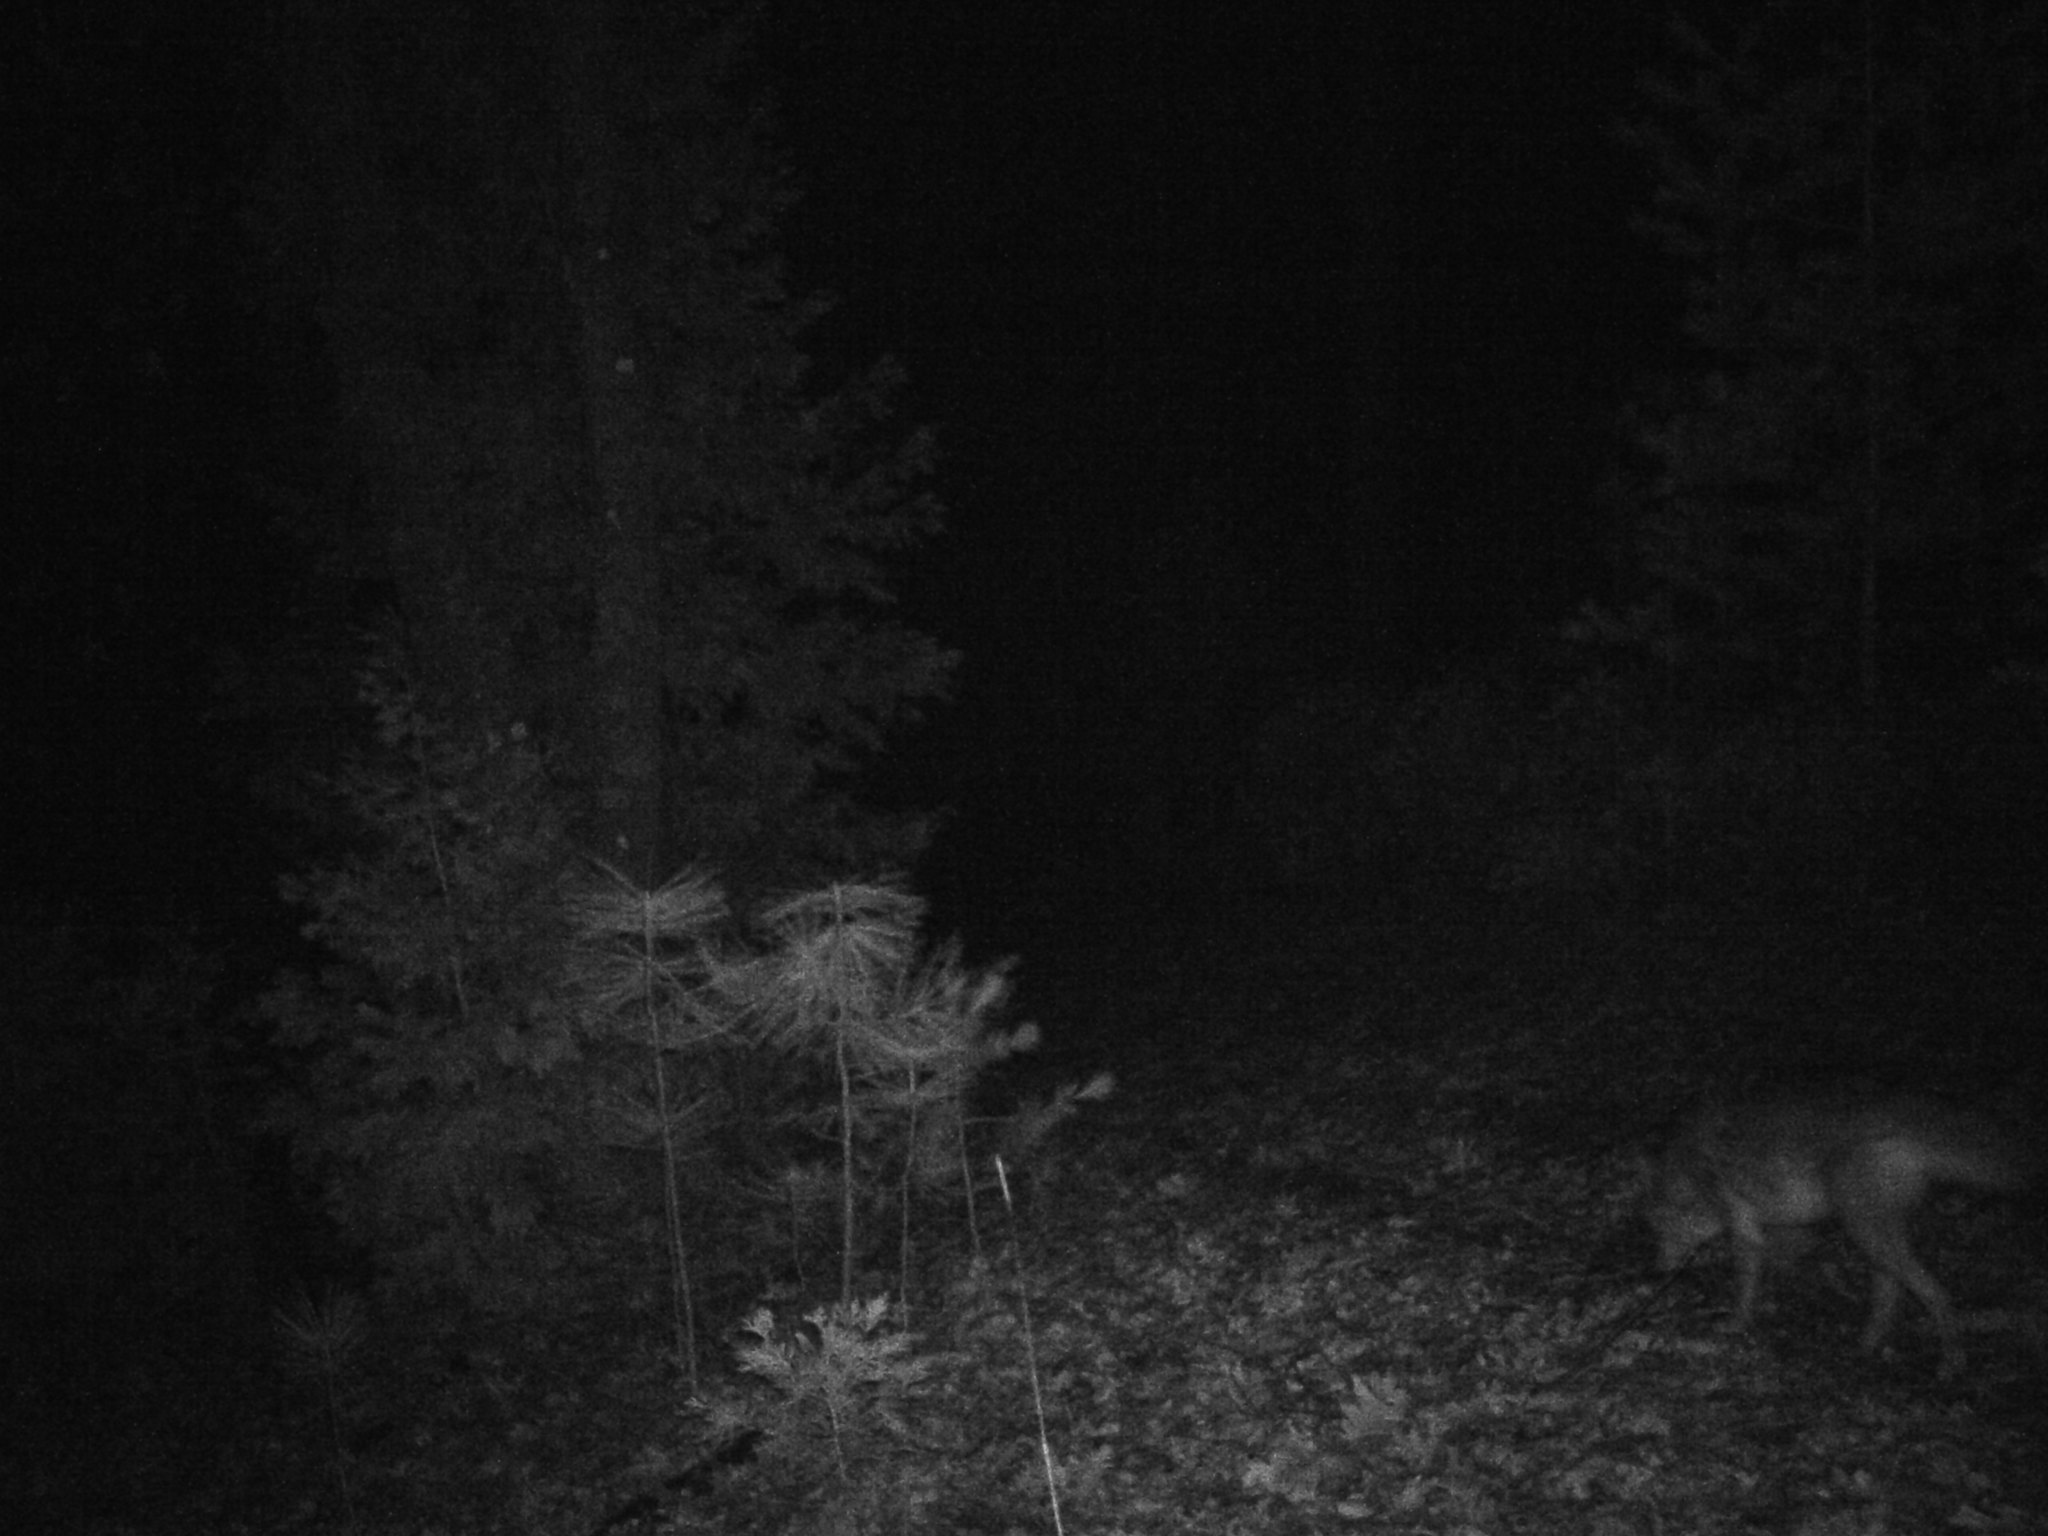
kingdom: Animalia
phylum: Chordata
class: Mammalia
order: Carnivora
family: Canidae
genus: Canis
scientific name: Canis latrans
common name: Coyote
